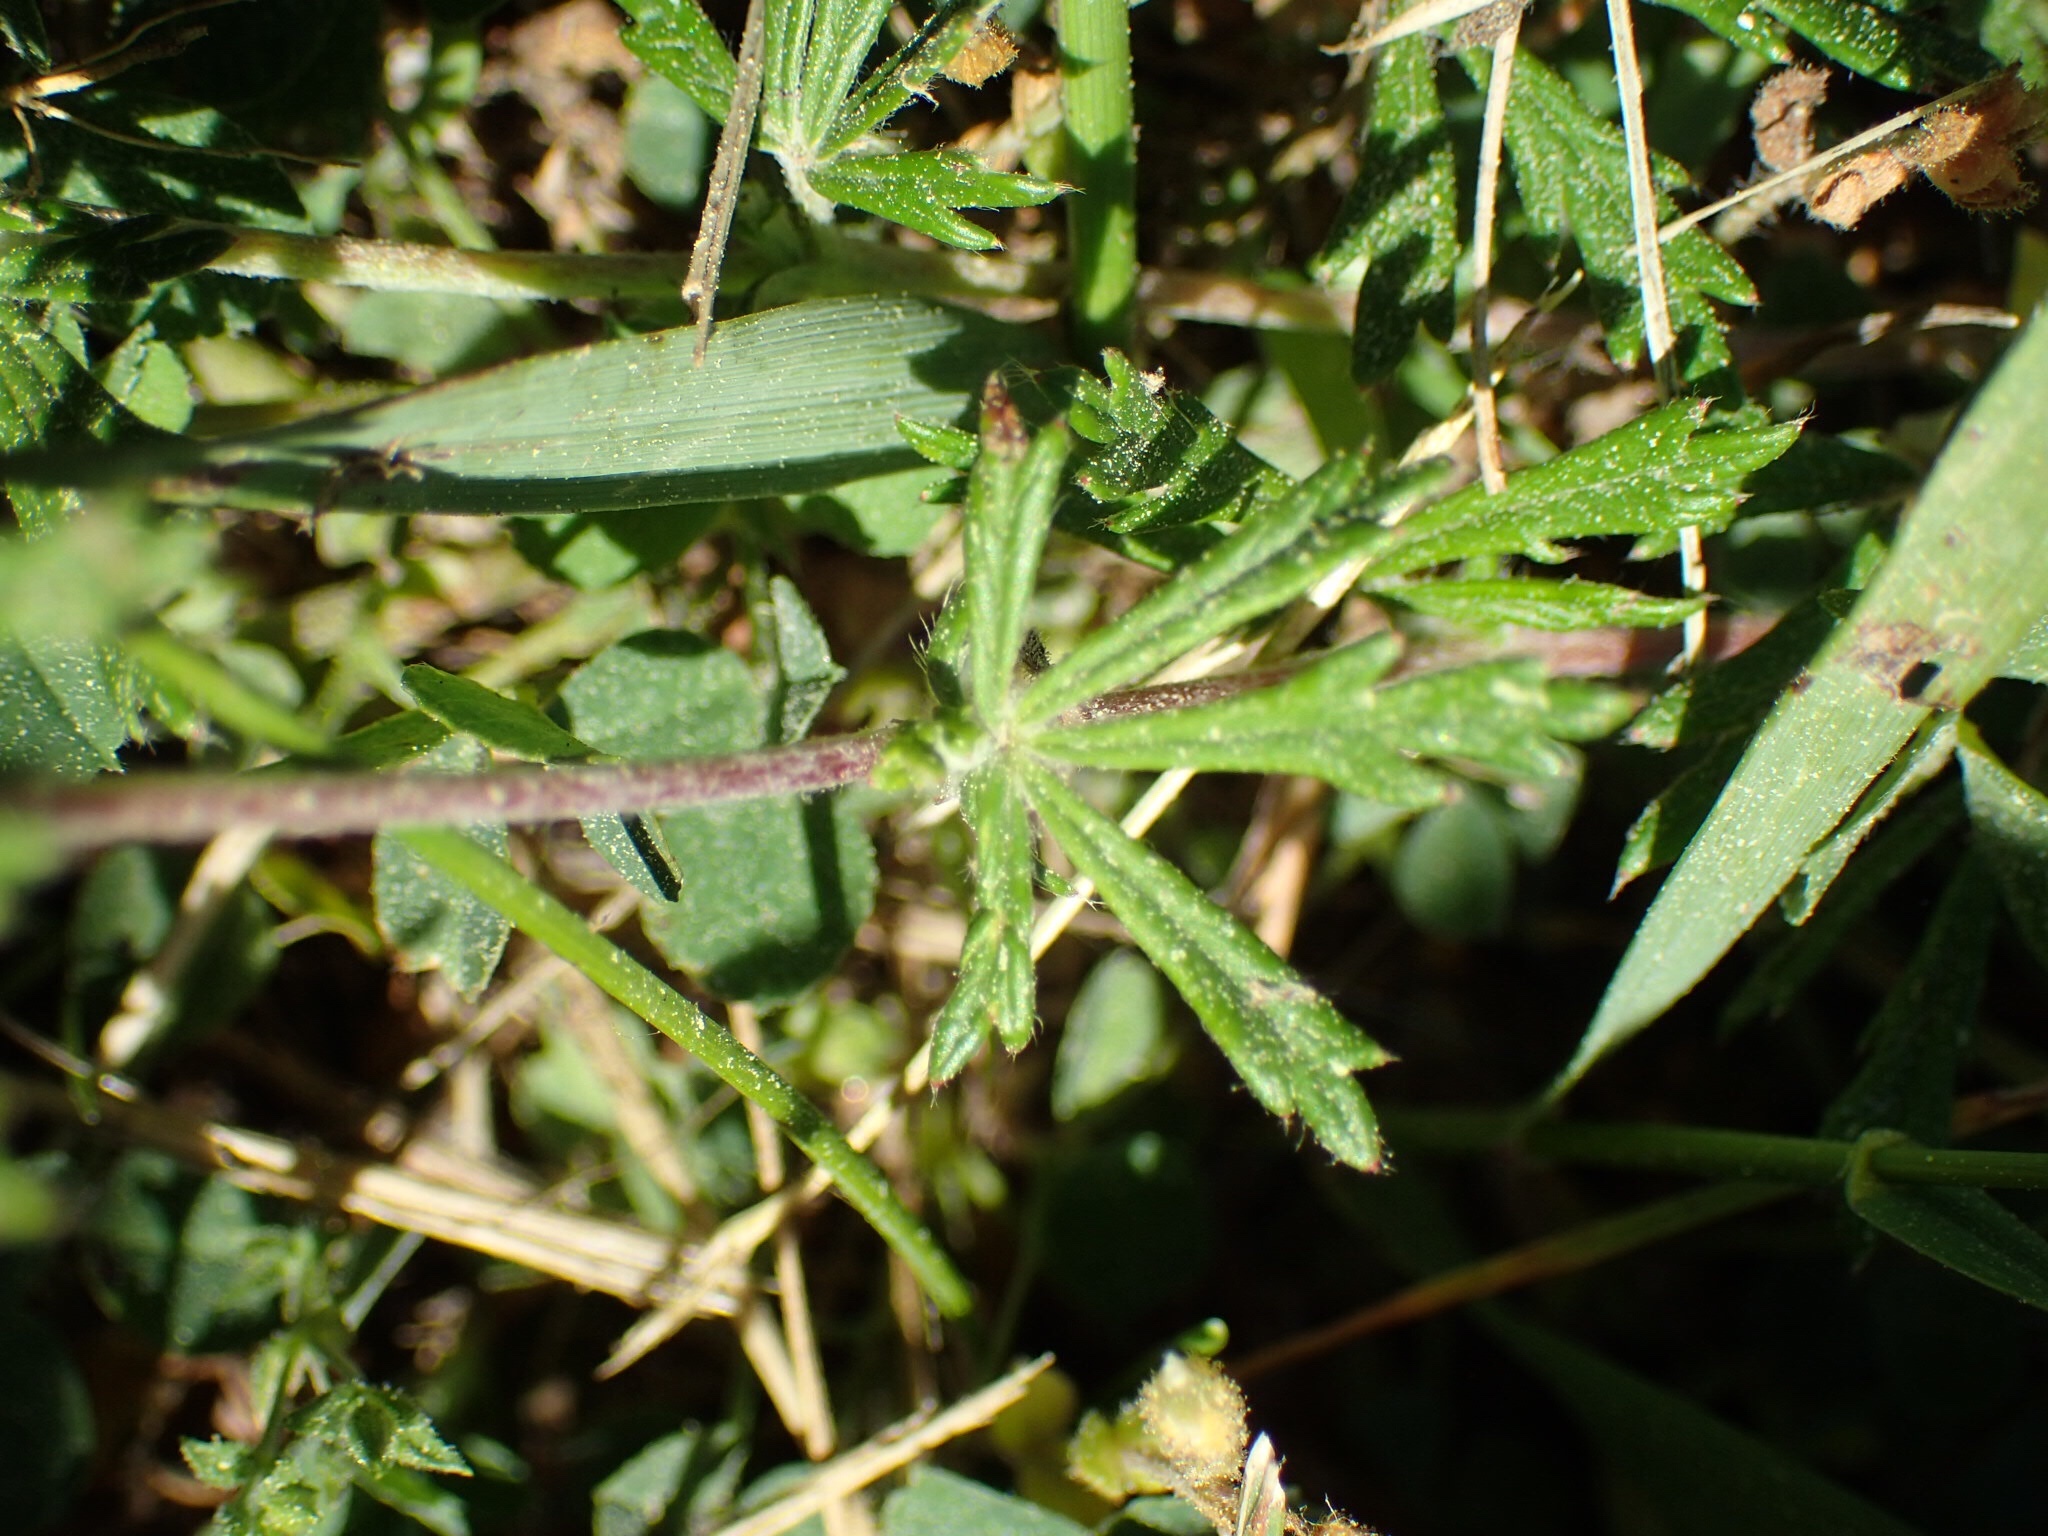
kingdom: Plantae
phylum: Tracheophyta
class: Magnoliopsida
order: Rosales
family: Rosaceae
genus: Potentilla
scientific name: Potentilla argentea
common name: Hoary cinquefoil
